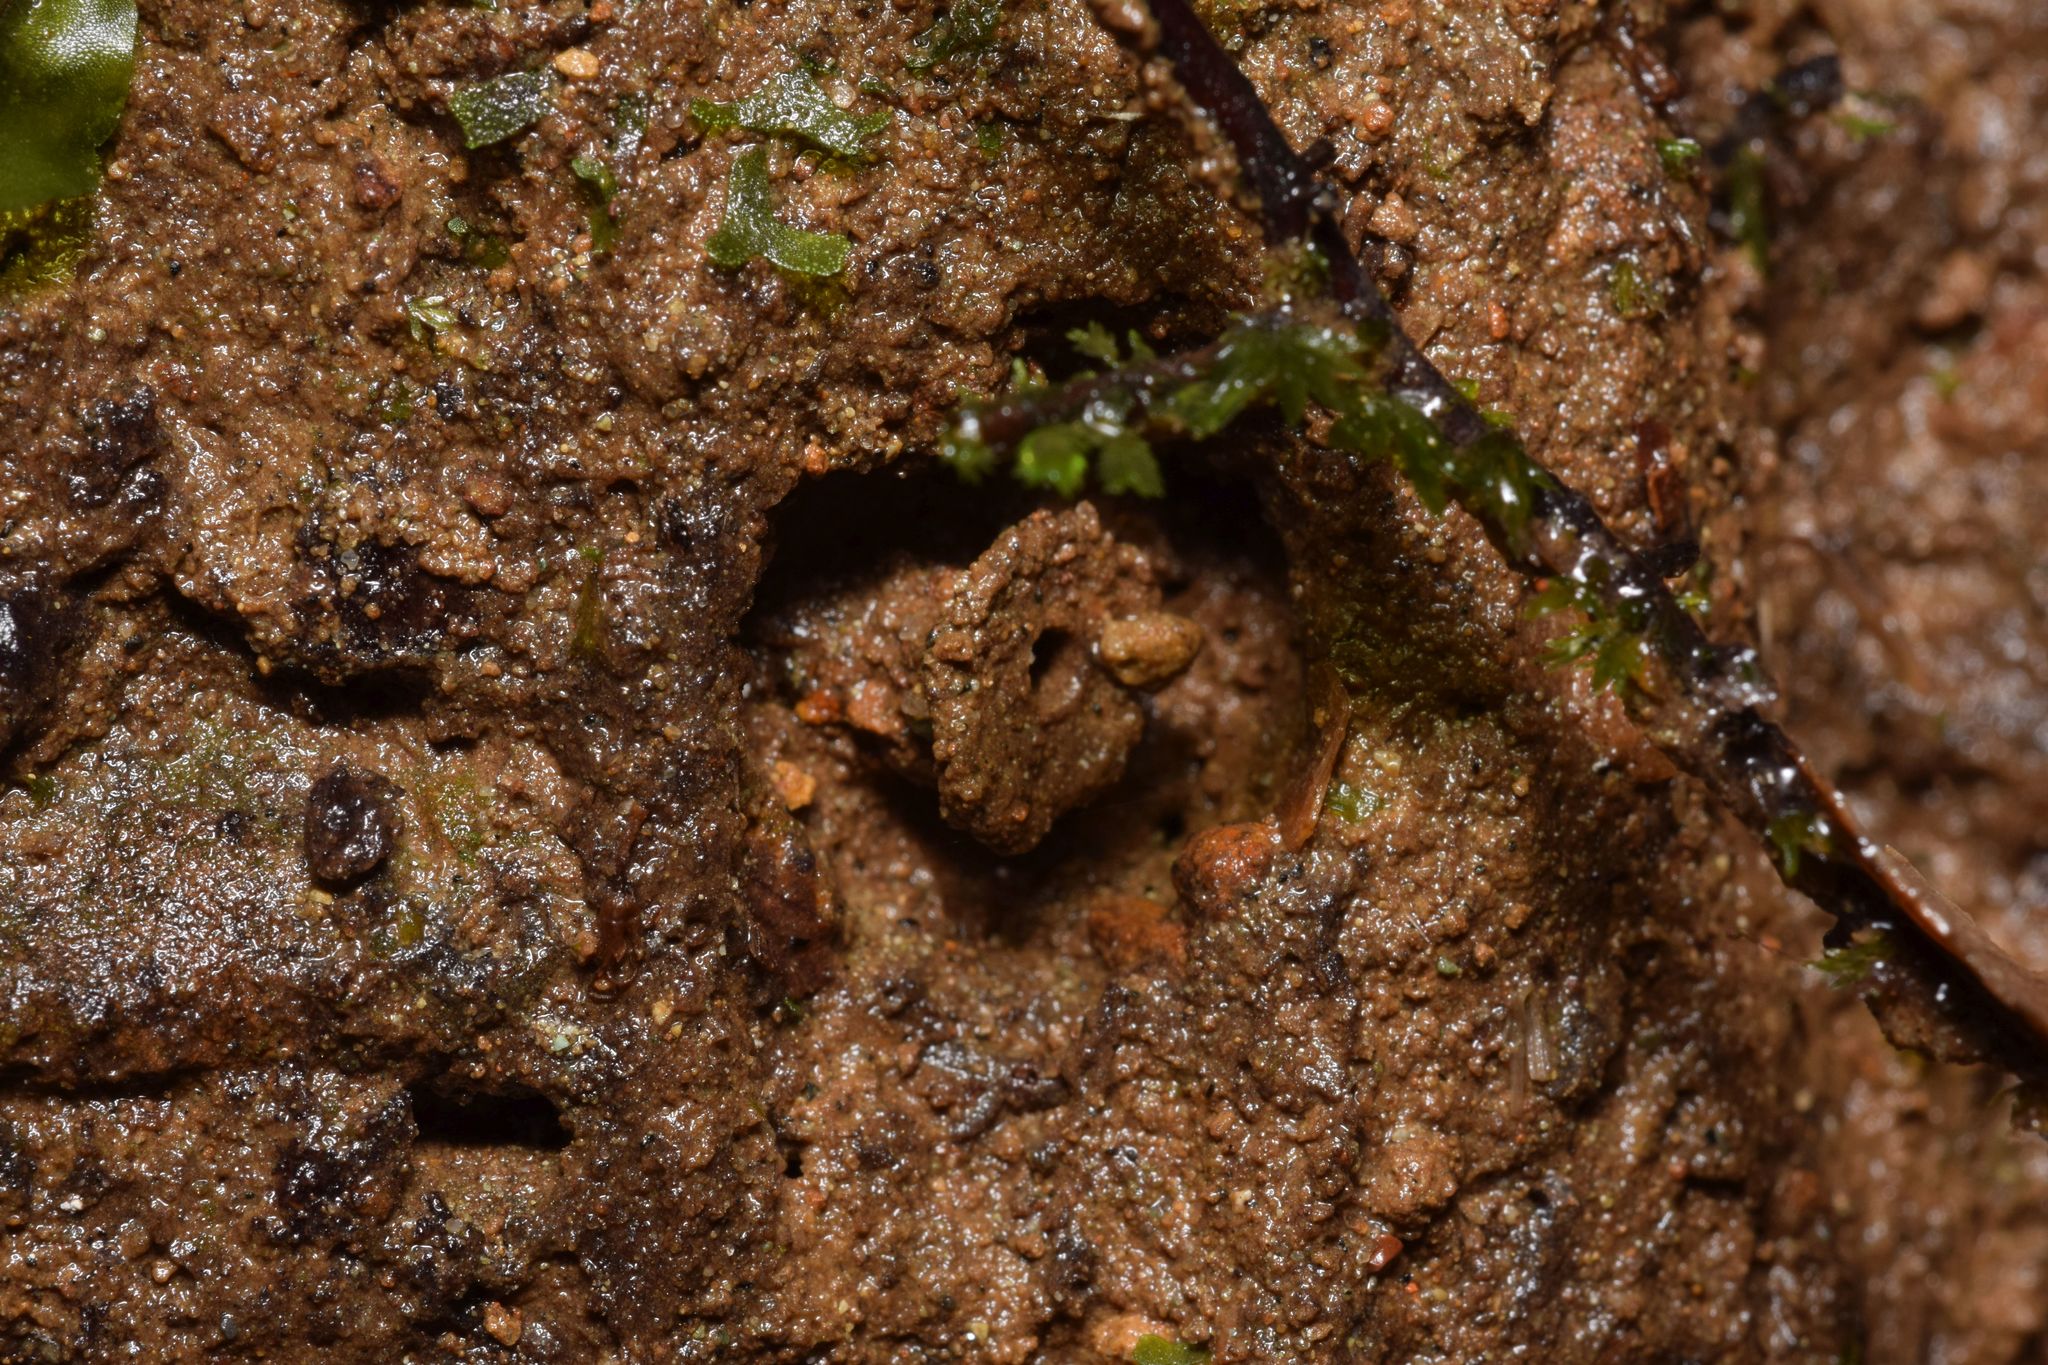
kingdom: Animalia
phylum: Arthropoda
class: Insecta
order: Hymenoptera
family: Formicidae
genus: Stenamma
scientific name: Stenamma alas
